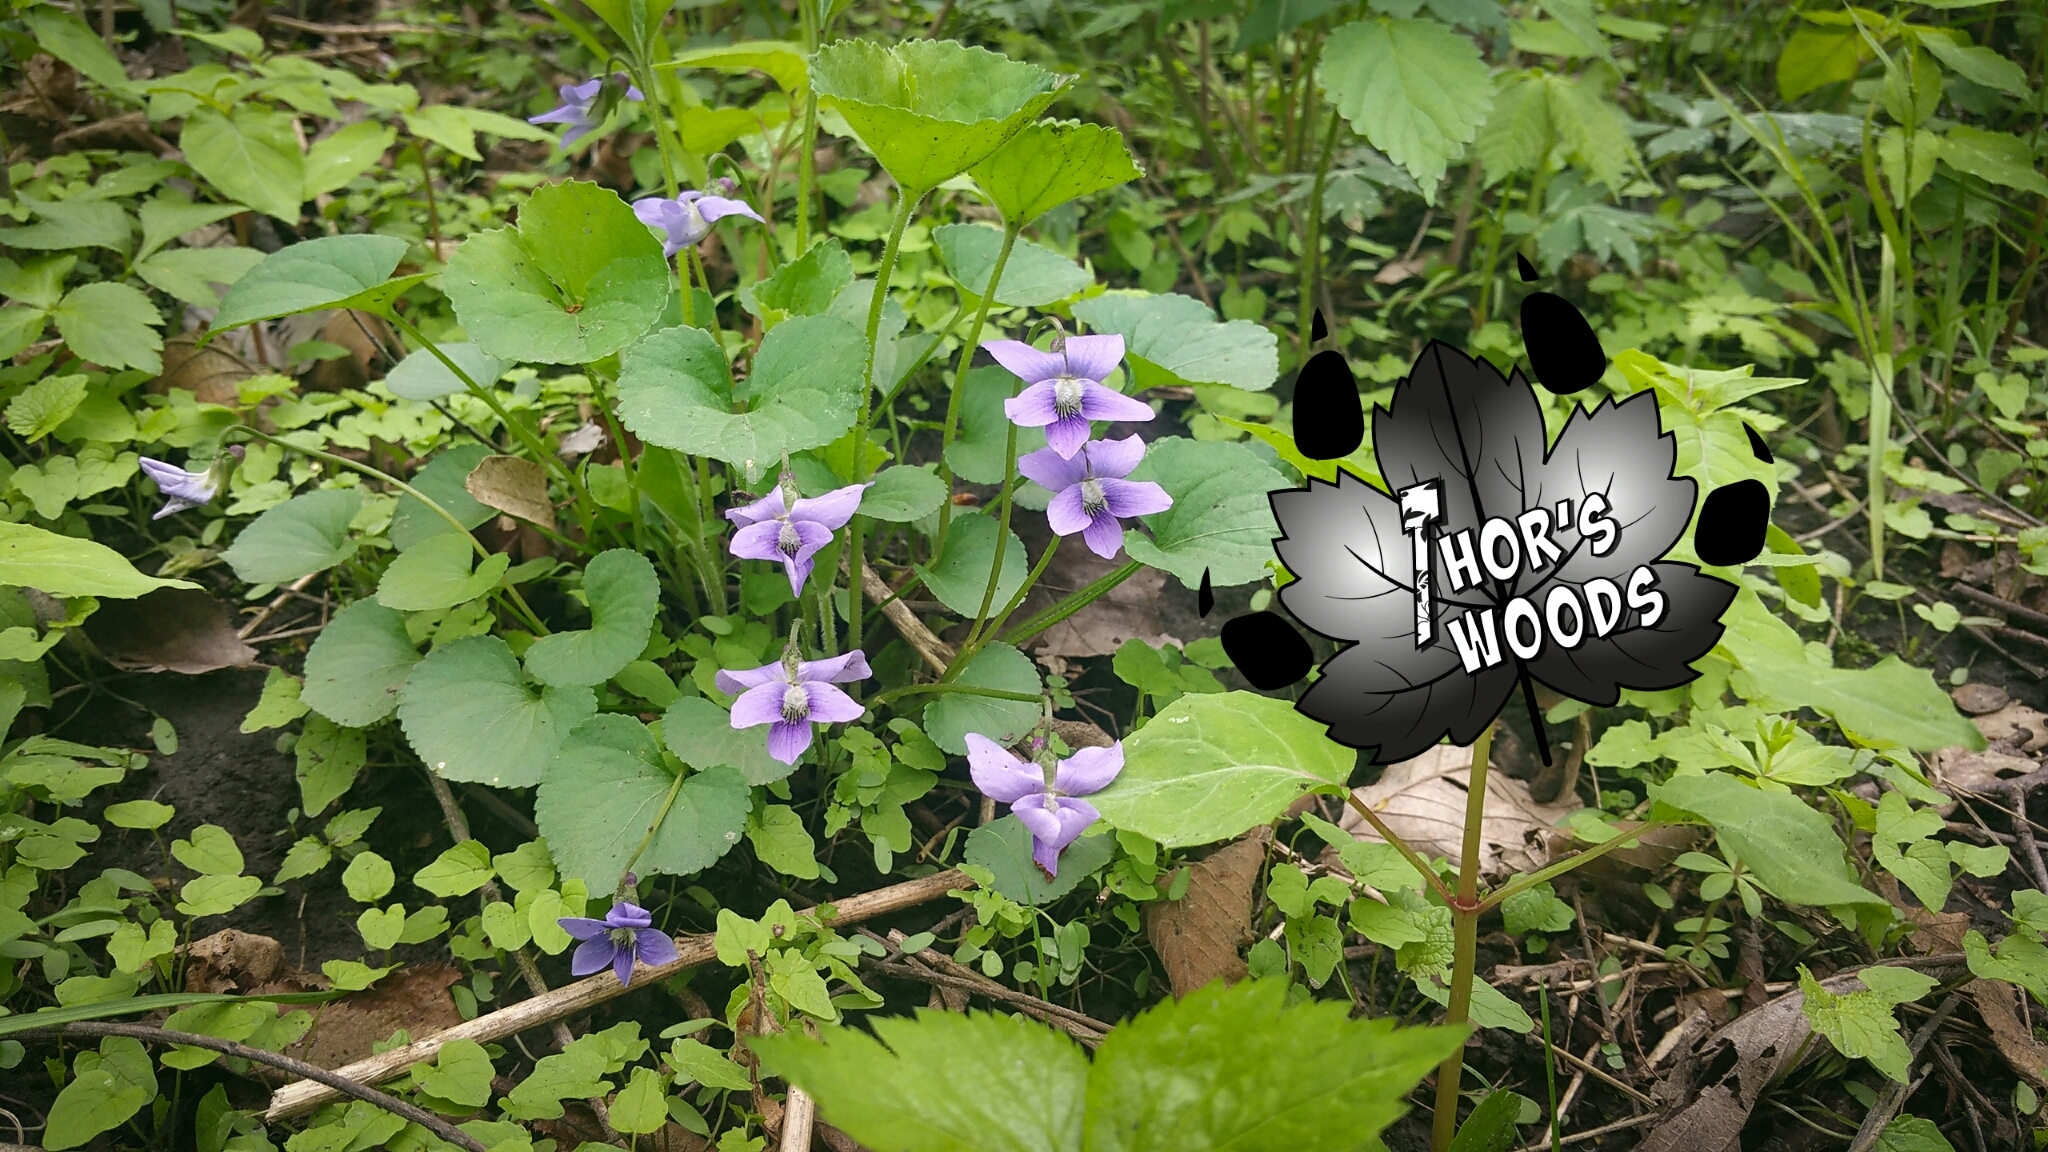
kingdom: Plantae
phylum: Tracheophyta
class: Magnoliopsida
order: Malpighiales
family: Violaceae
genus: Viola
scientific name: Viola sororia
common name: Dooryard violet
